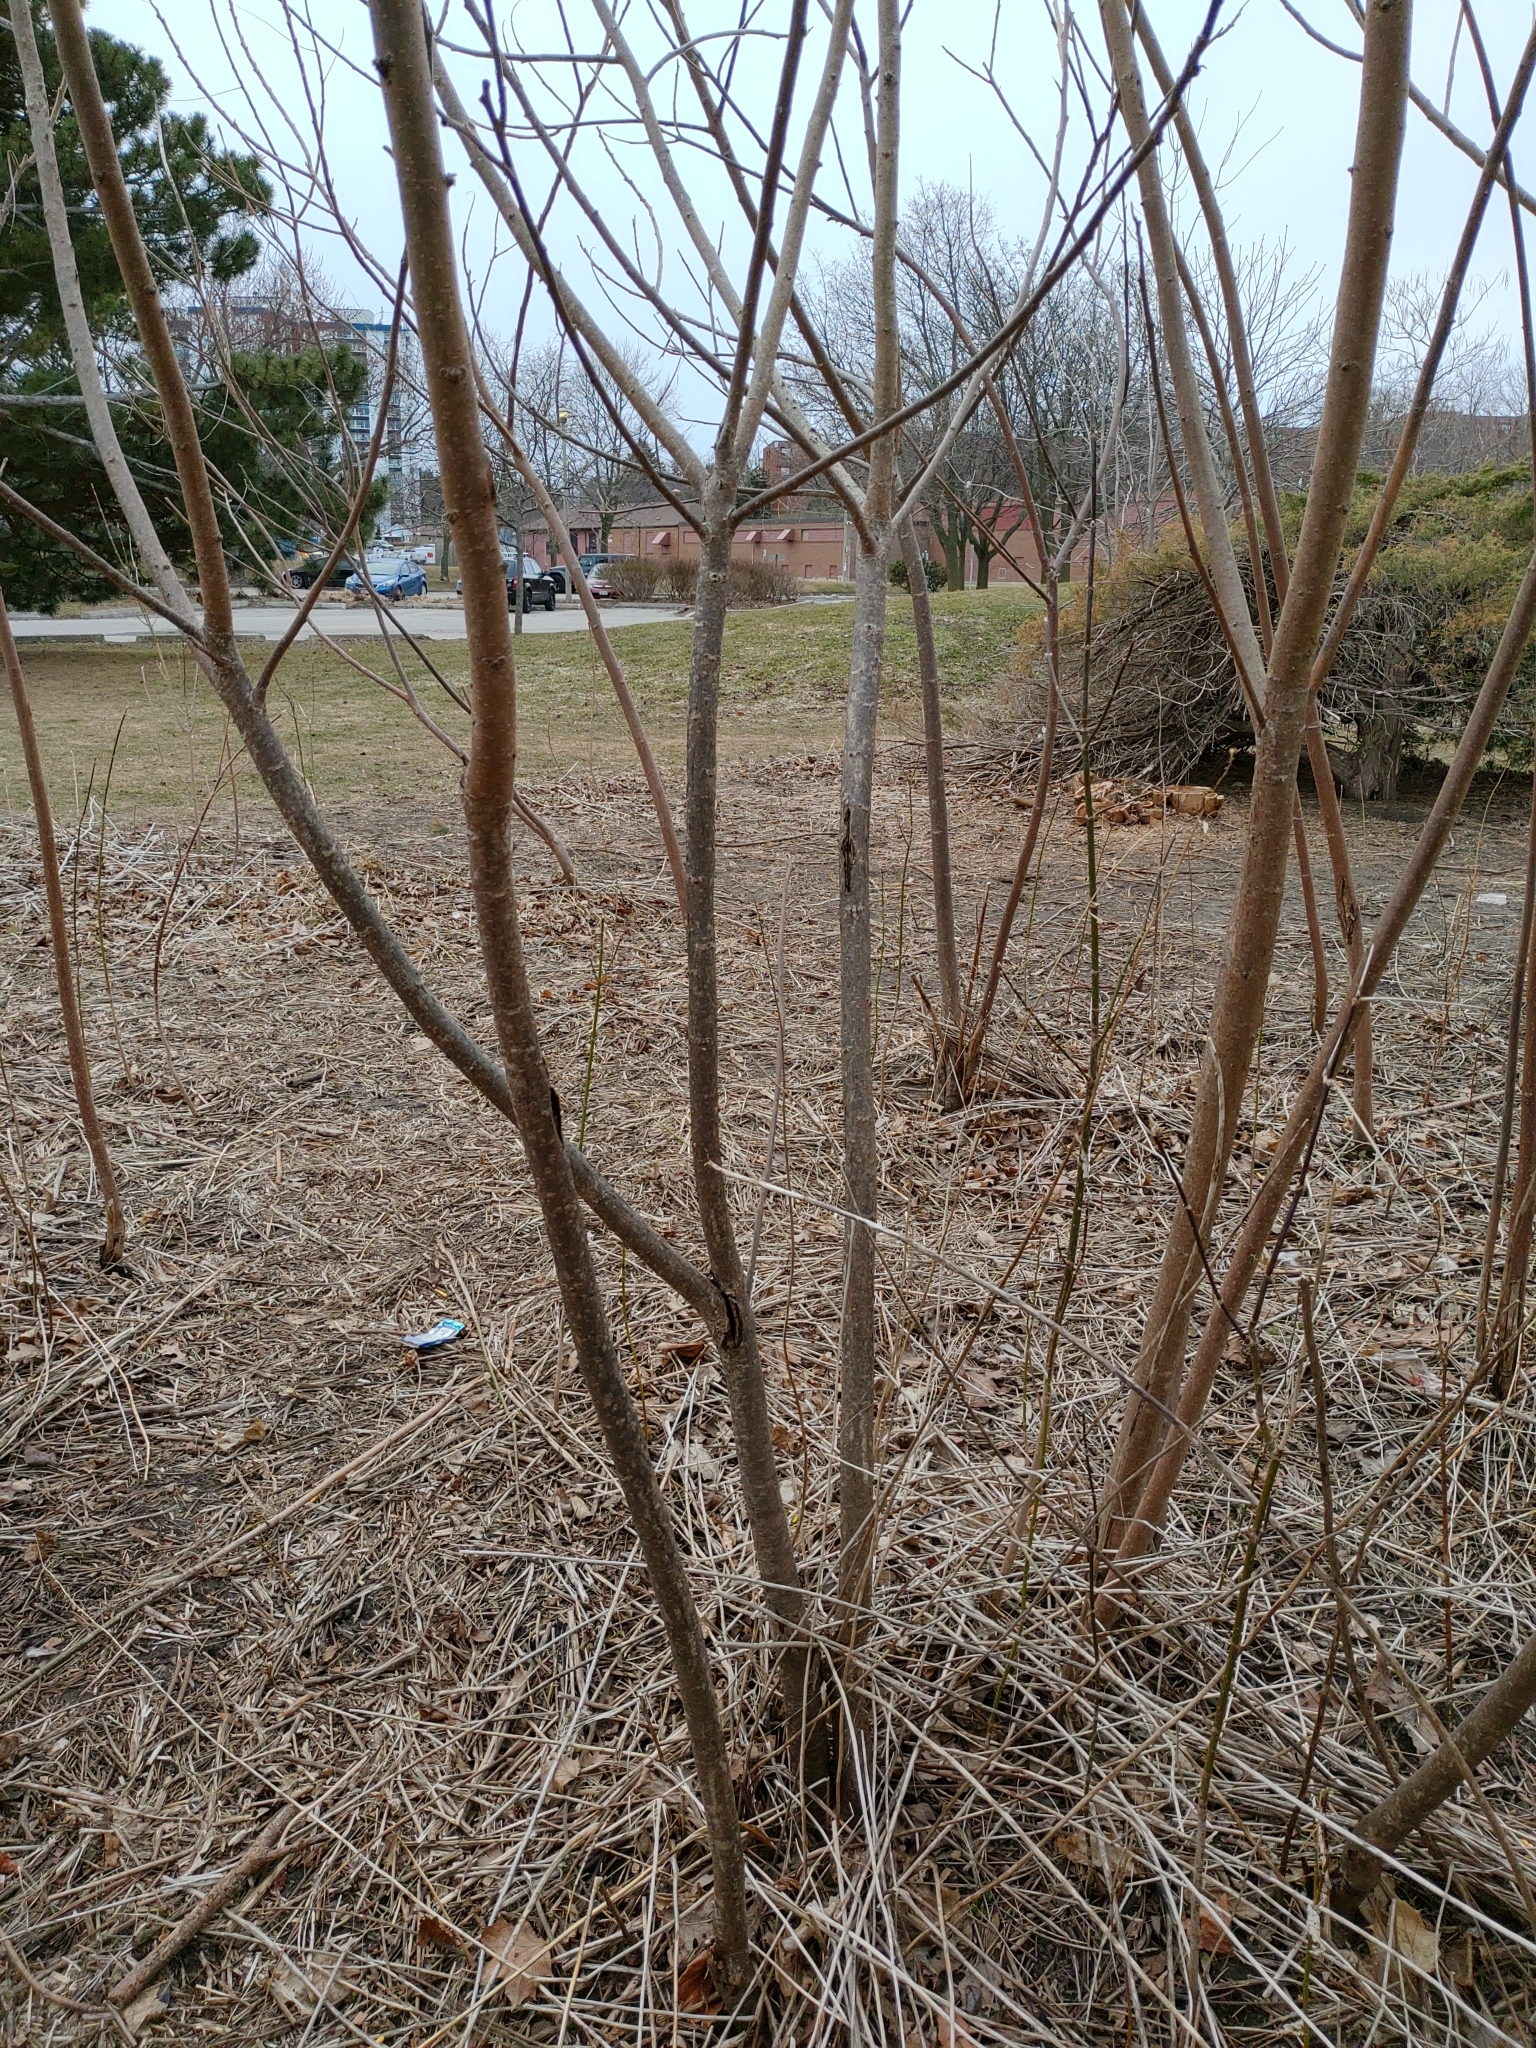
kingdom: Plantae
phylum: Tracheophyta
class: Magnoliopsida
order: Sapindales
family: Anacardiaceae
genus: Rhus
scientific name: Rhus typhina
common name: Staghorn sumac
